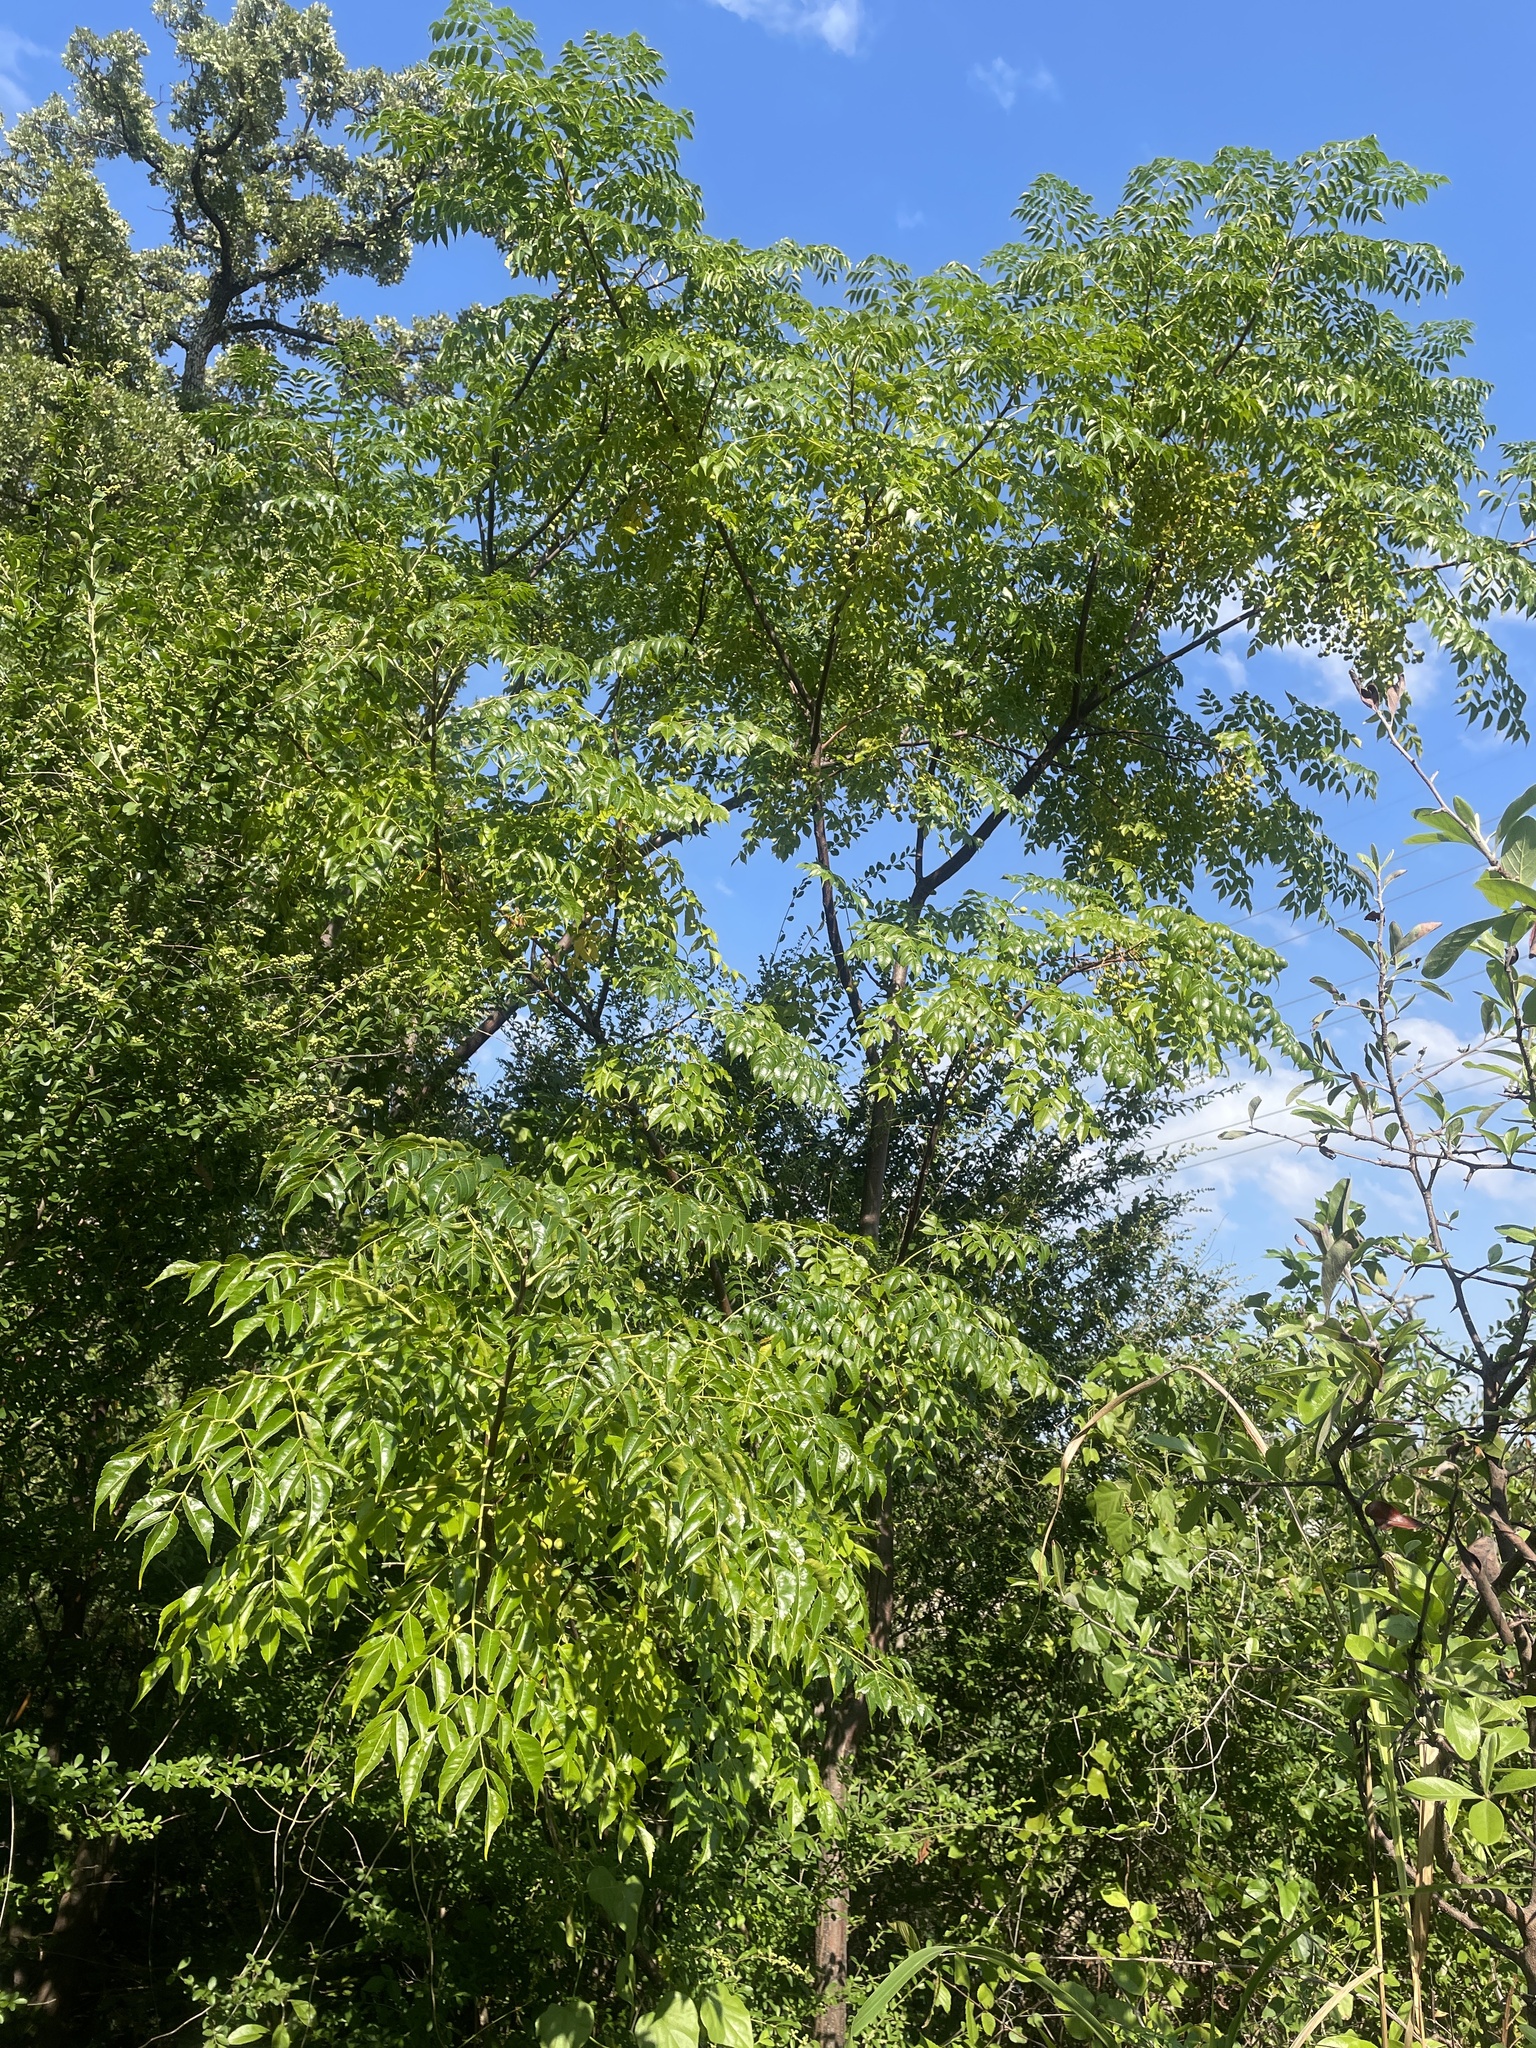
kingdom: Plantae
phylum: Tracheophyta
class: Magnoliopsida
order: Sapindales
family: Meliaceae
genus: Melia
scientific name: Melia azedarach
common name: Chinaberrytree
